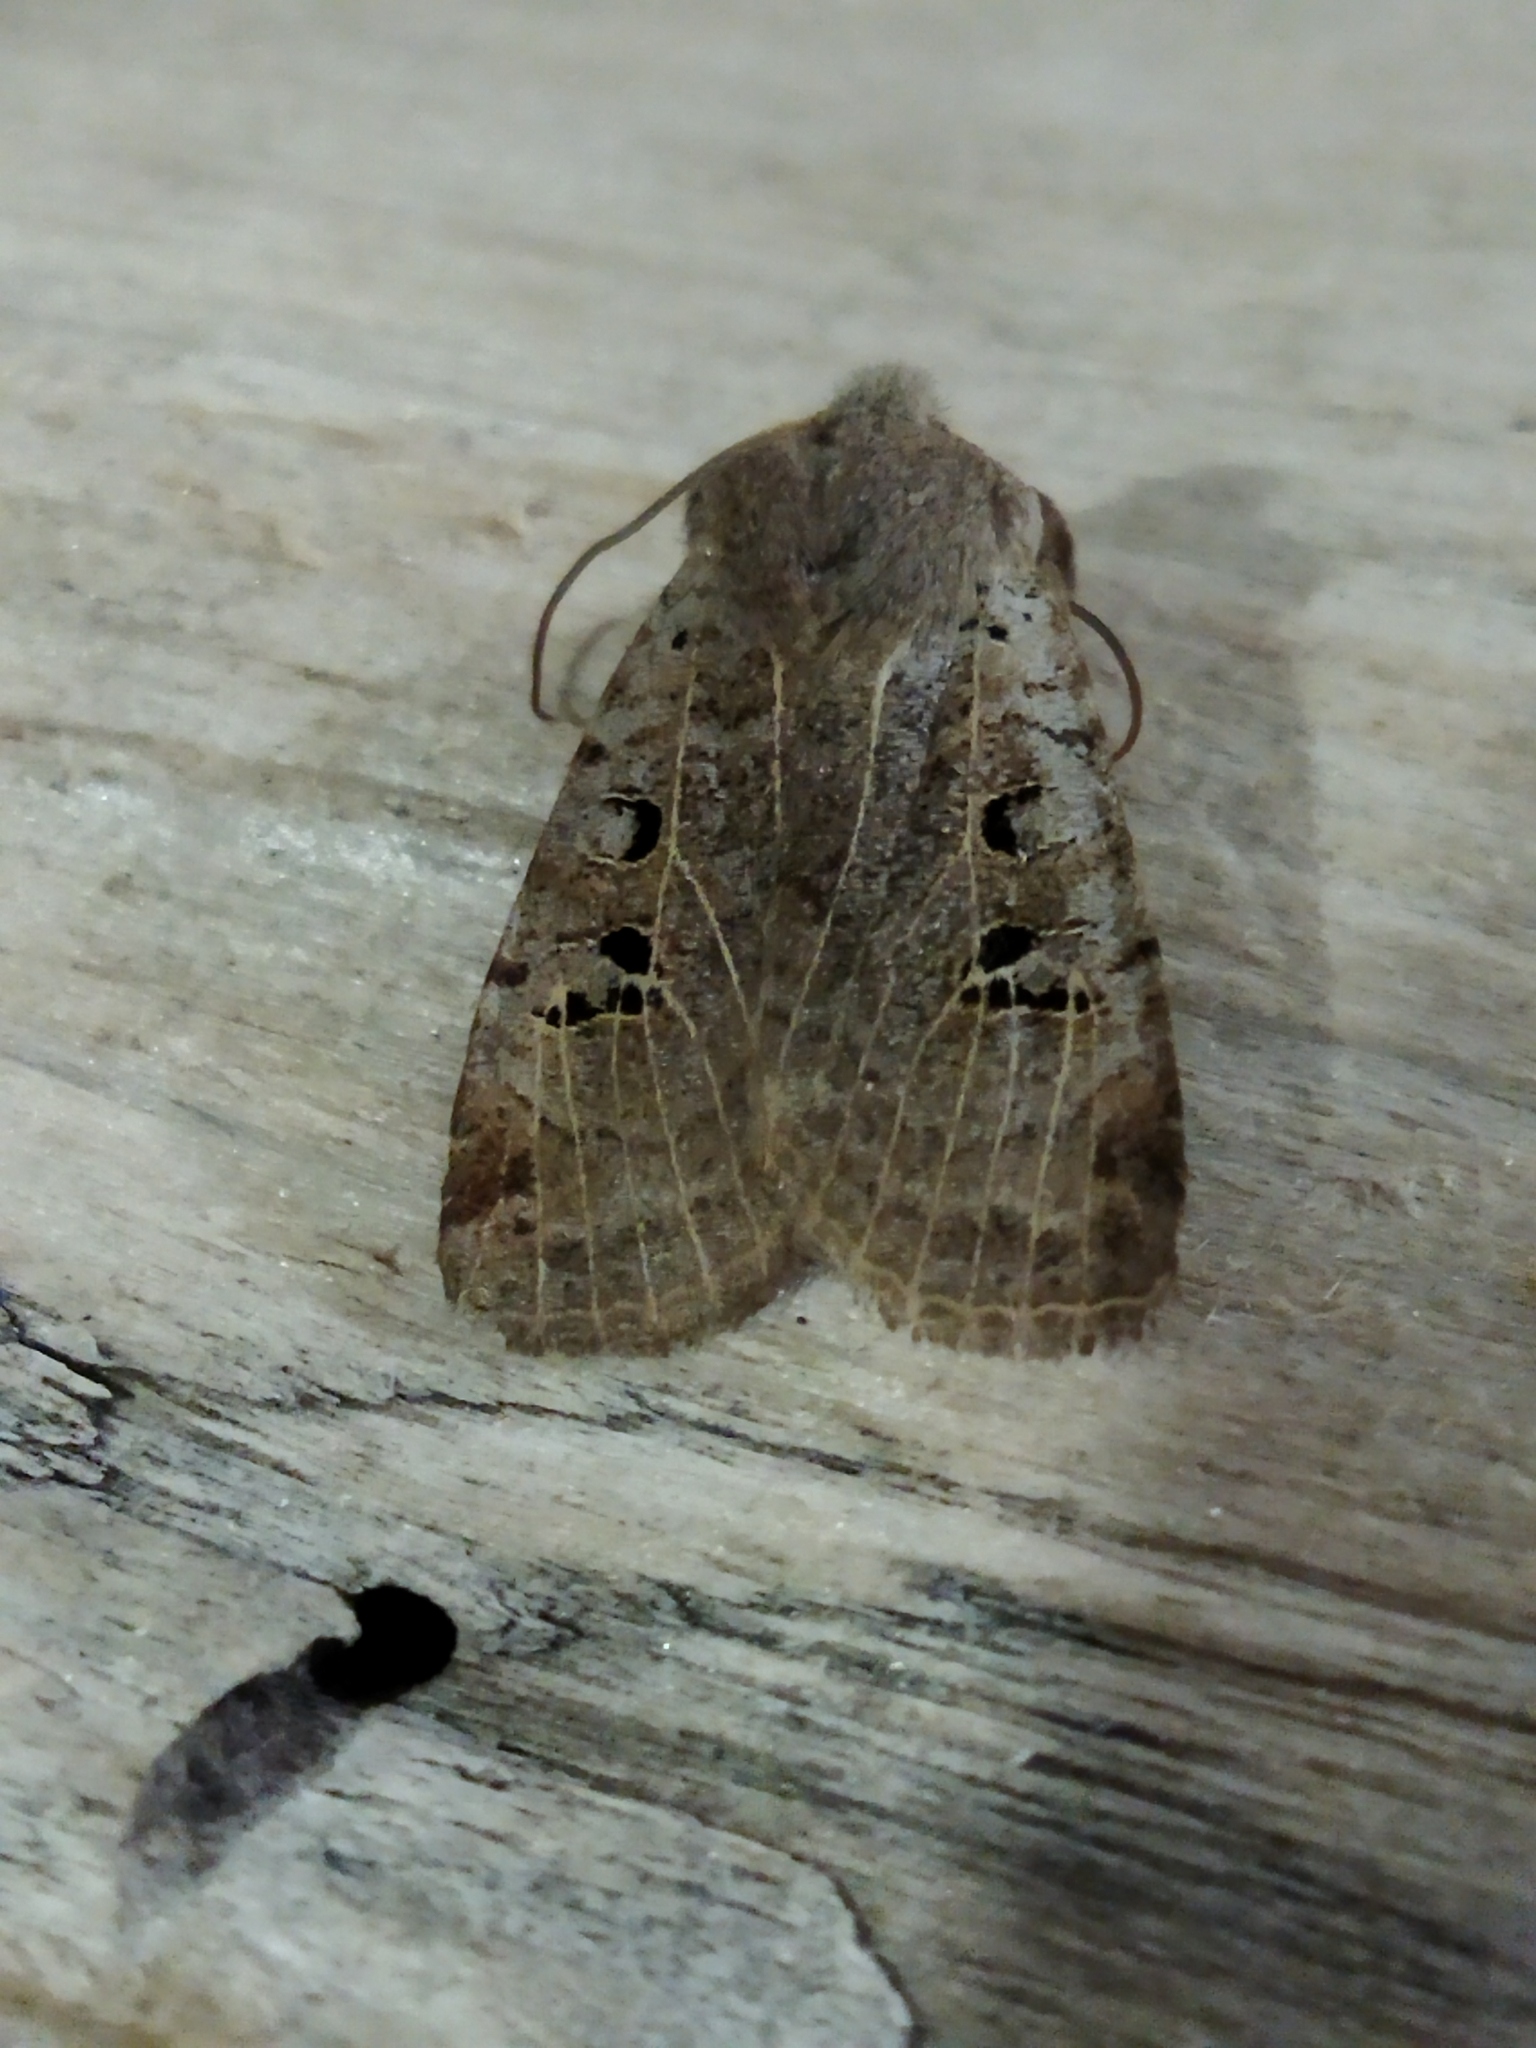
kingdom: Animalia
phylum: Arthropoda
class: Insecta
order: Lepidoptera
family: Noctuidae
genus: Conistra
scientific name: Conistra rubiginosa
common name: Black-spotted chestnut
